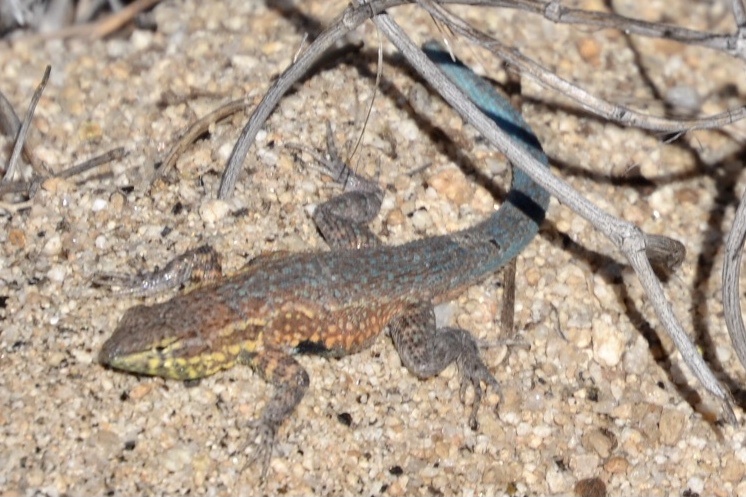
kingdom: Animalia
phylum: Chordata
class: Squamata
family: Phrynosomatidae
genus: Uta
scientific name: Uta stansburiana
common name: Side-blotched lizard
